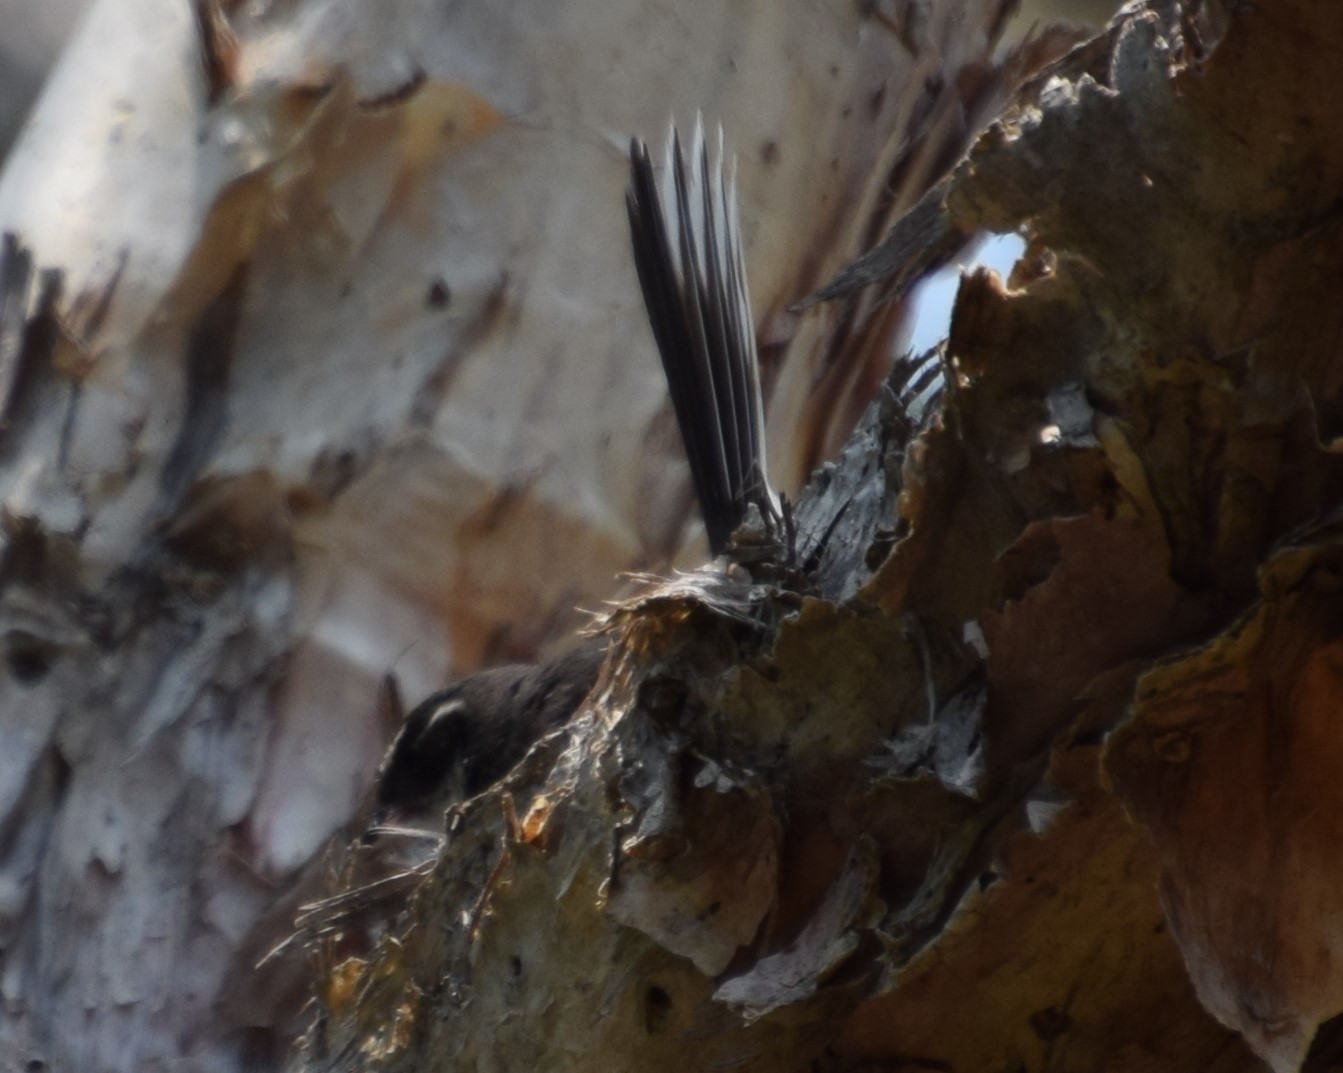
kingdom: Animalia
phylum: Chordata
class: Aves
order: Passeriformes
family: Rhipiduridae
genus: Rhipidura
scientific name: Rhipidura albiscapa
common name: Grey fantail
